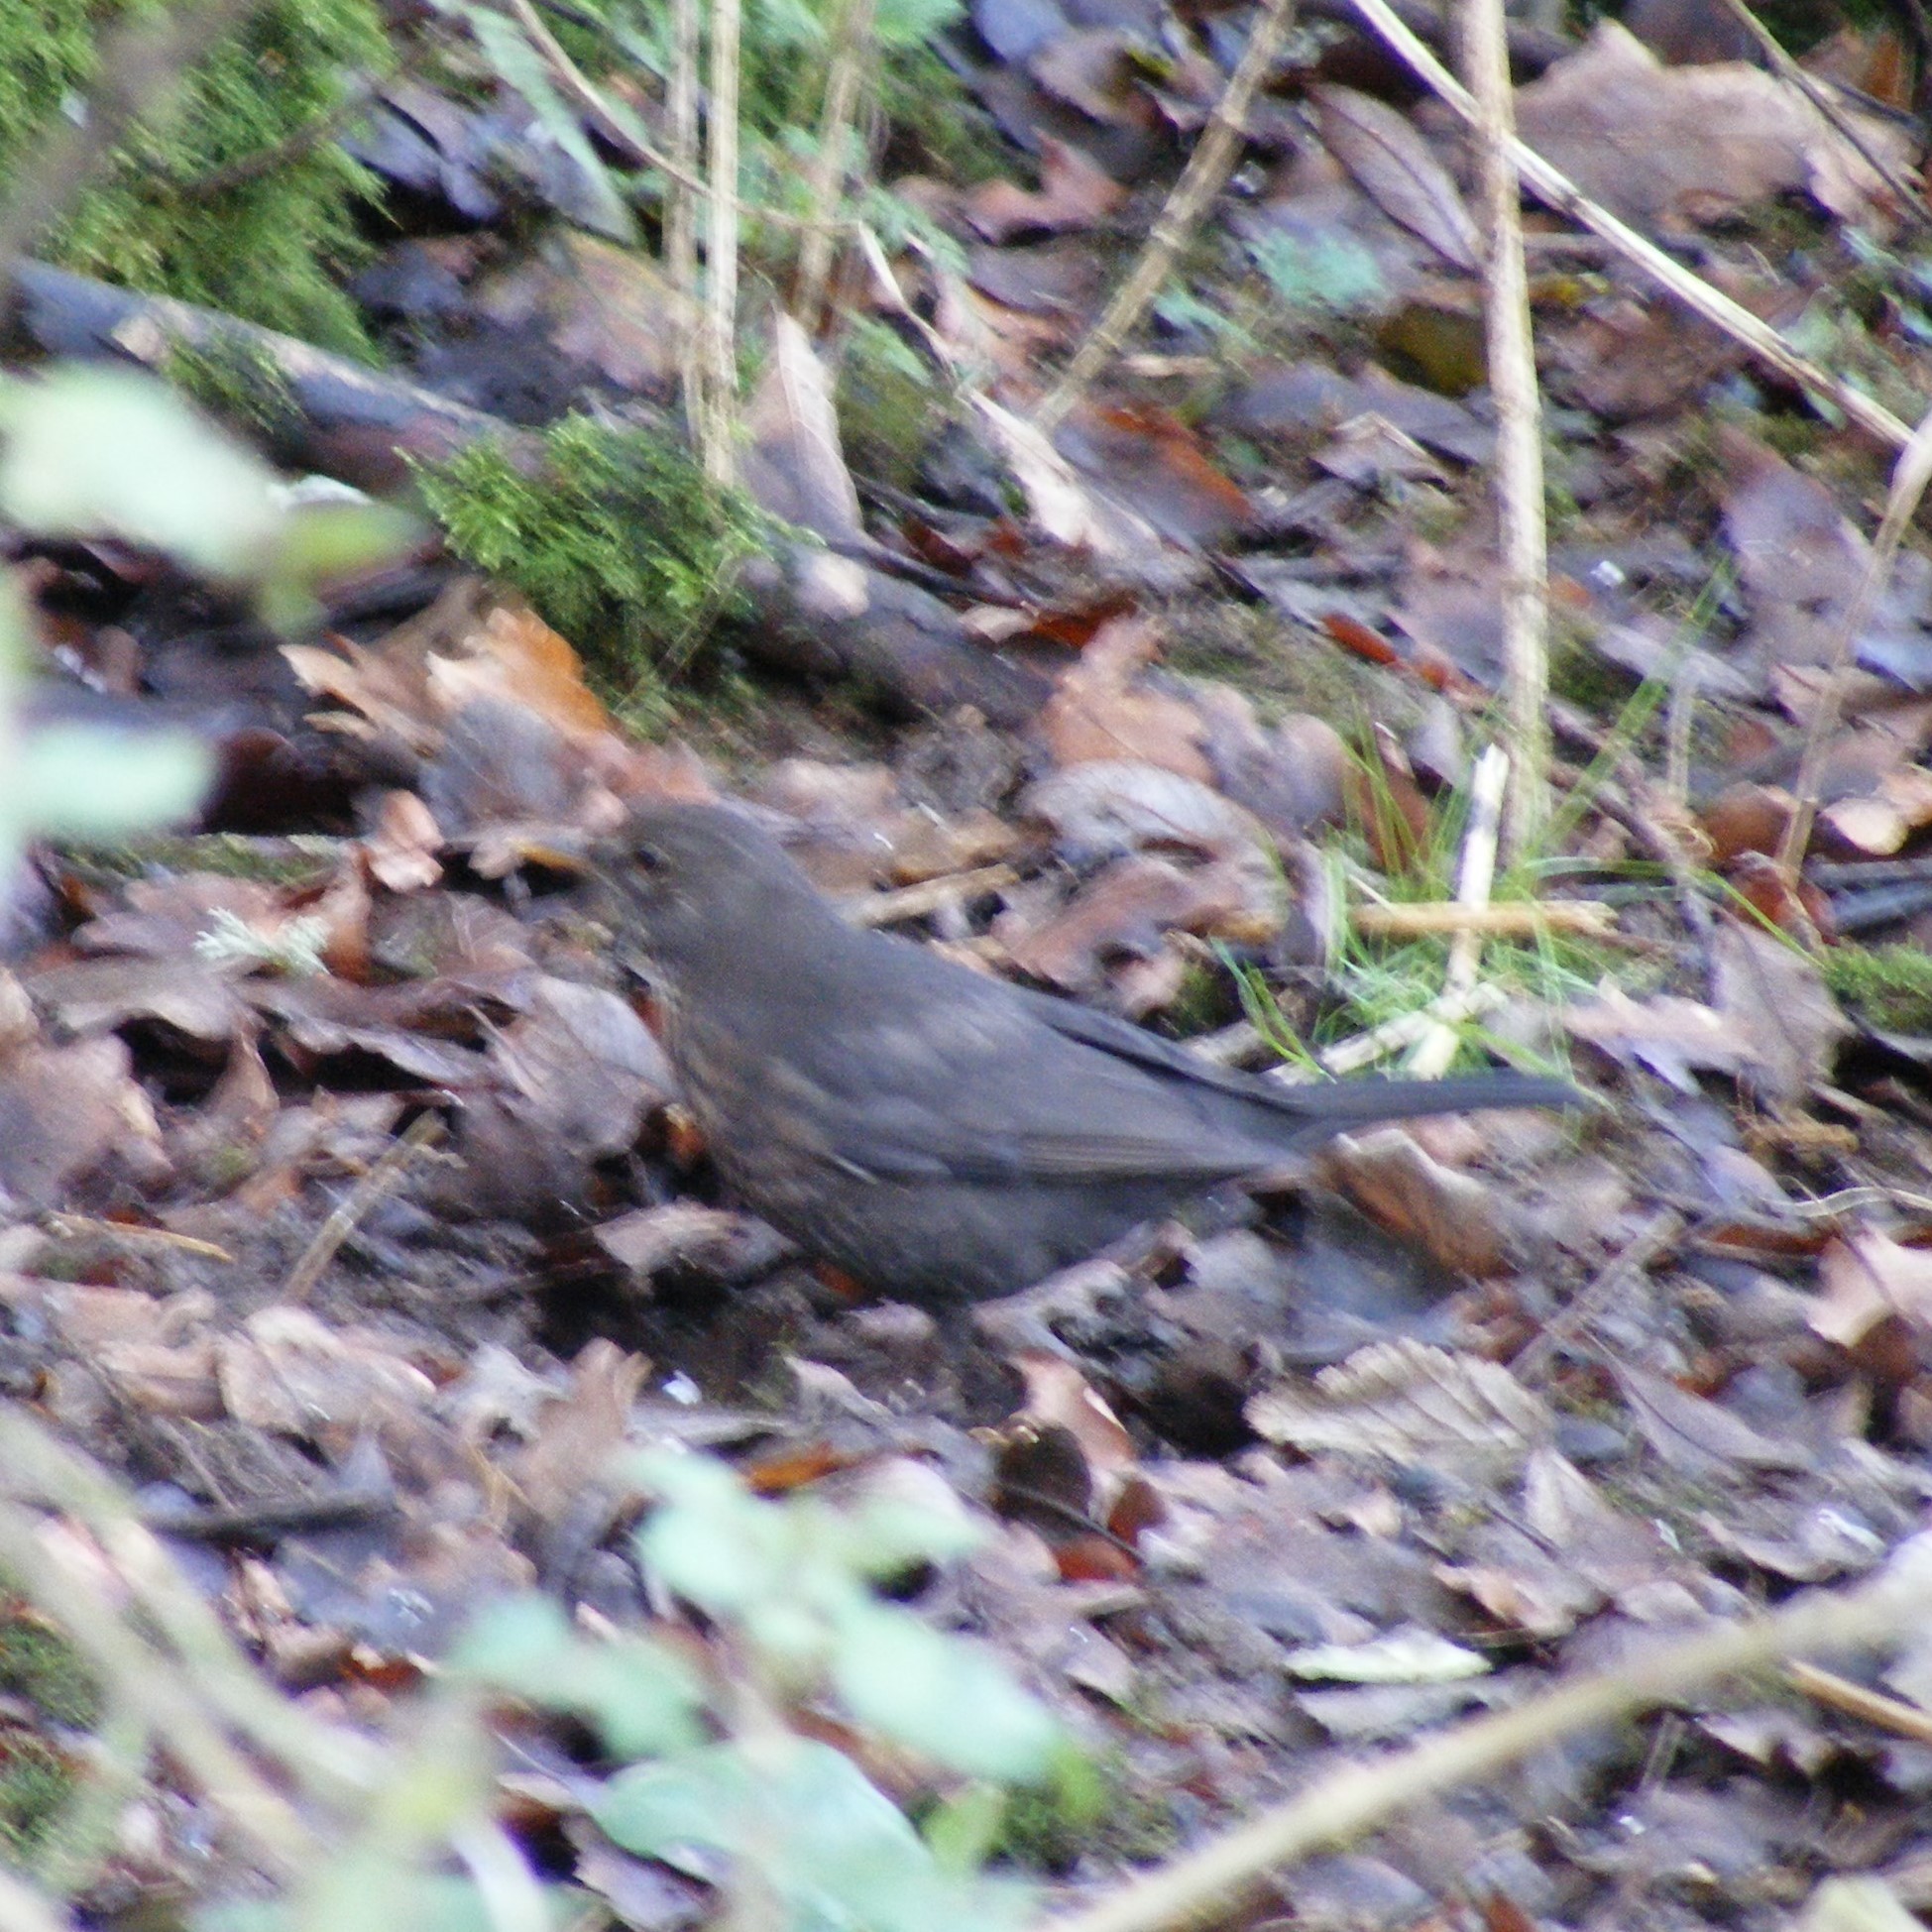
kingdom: Animalia
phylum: Chordata
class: Aves
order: Passeriformes
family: Turdidae
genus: Turdus
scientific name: Turdus merula
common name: Common blackbird
